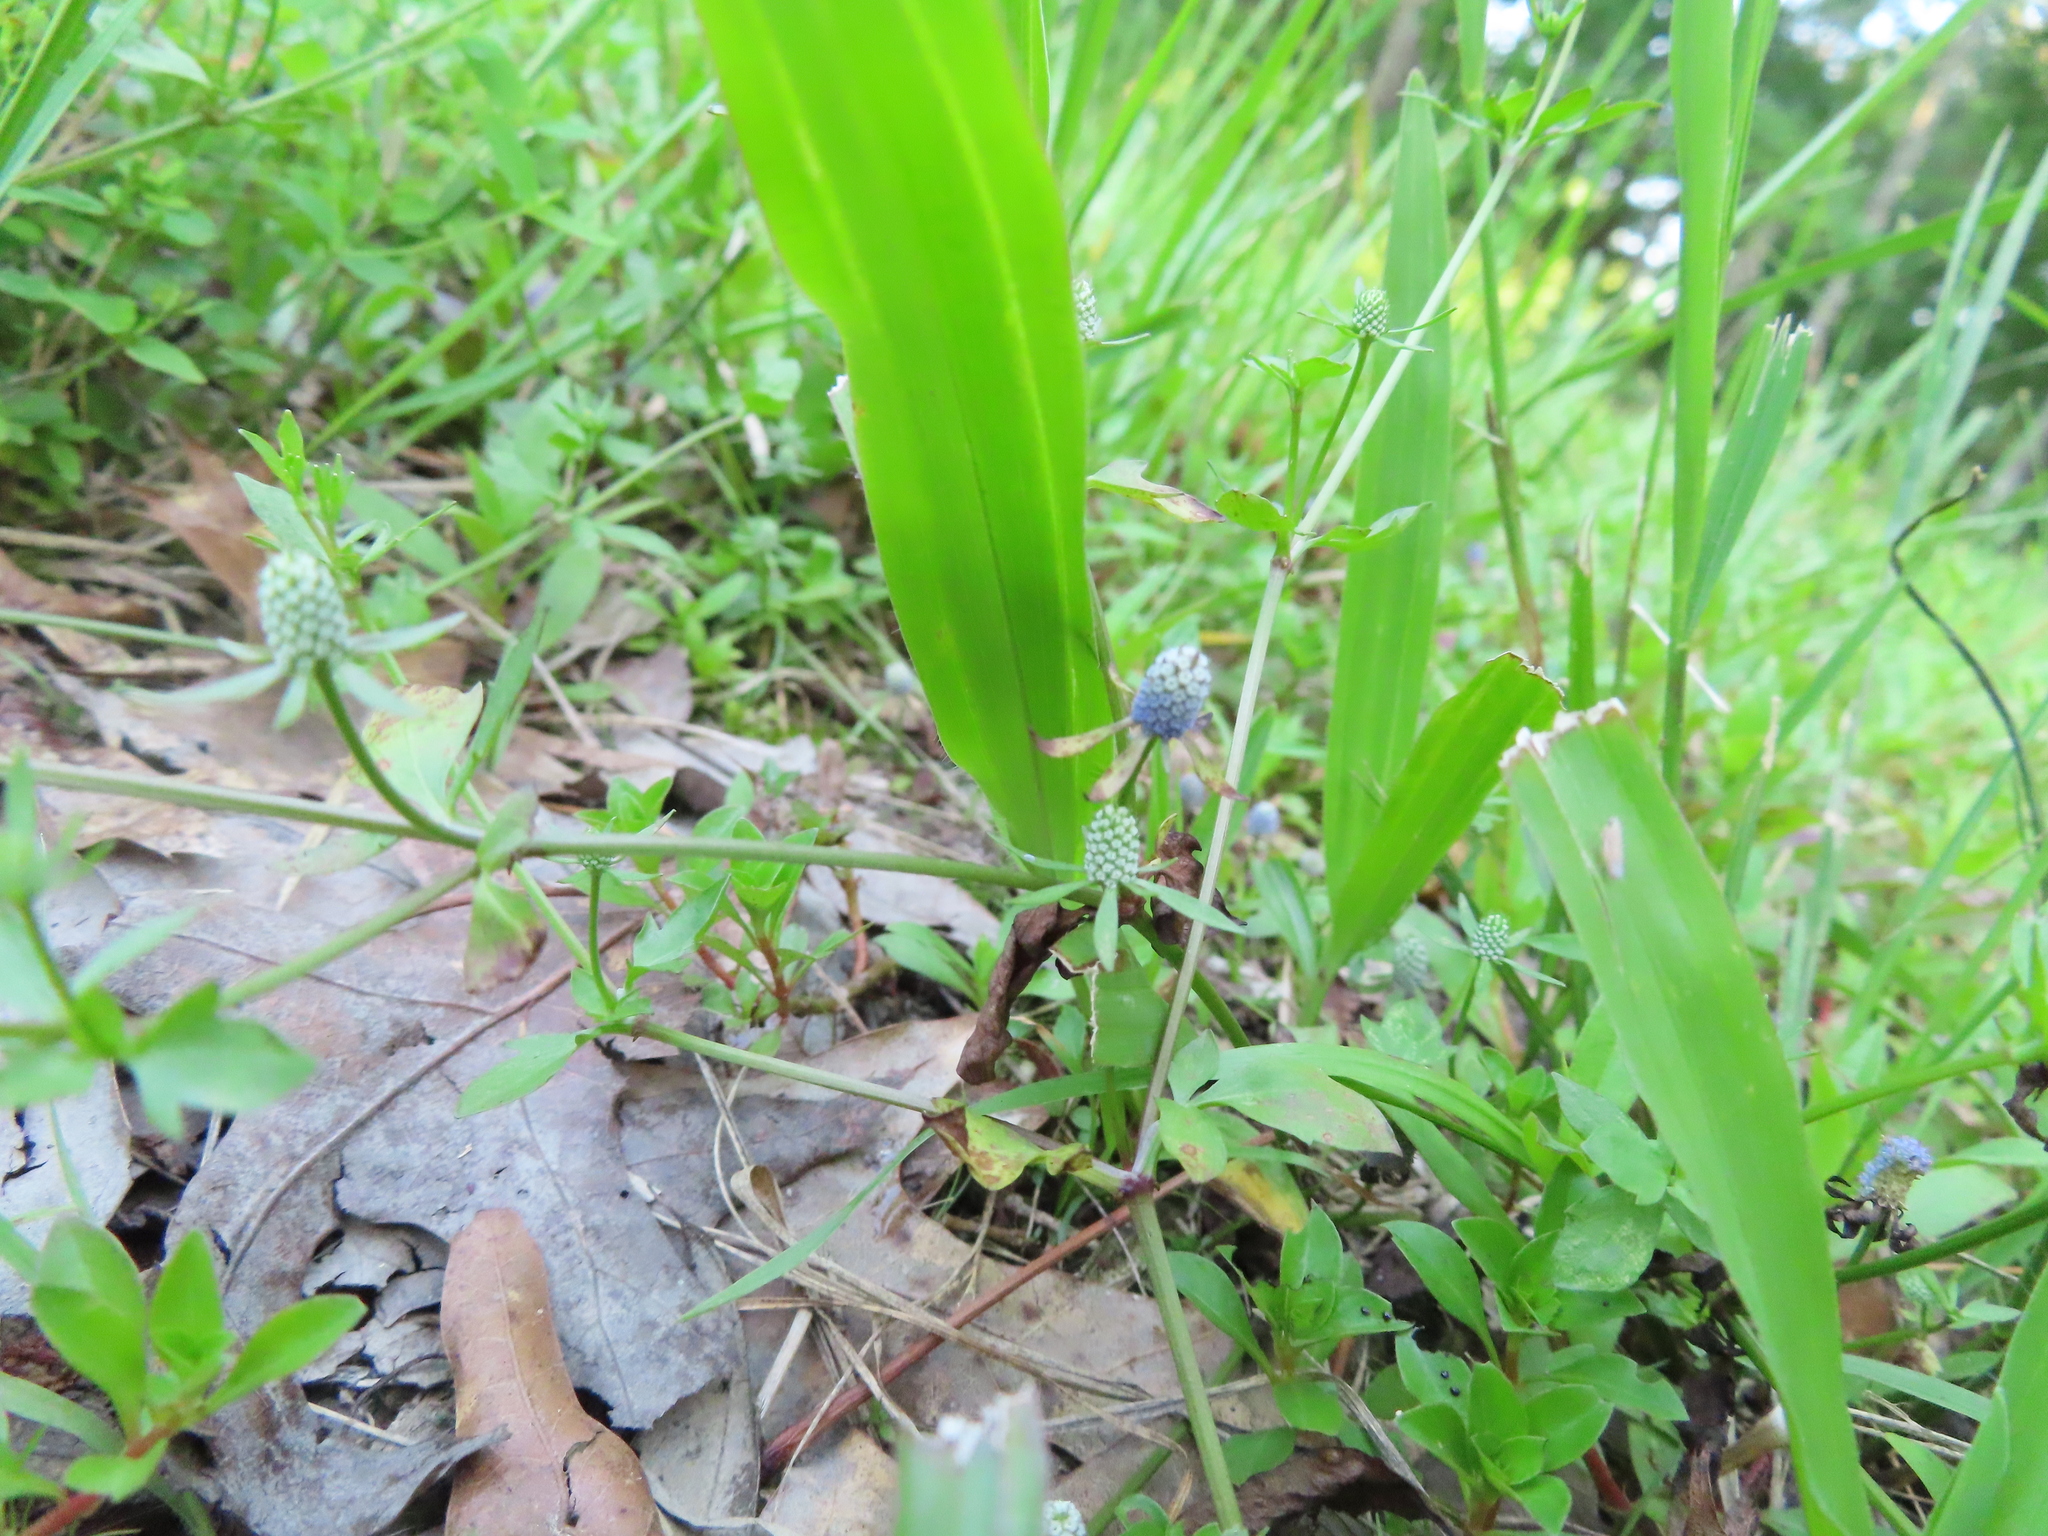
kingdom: Plantae
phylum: Tracheophyta
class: Magnoliopsida
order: Apiales
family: Apiaceae
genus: Eryngium
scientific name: Eryngium prostratum
